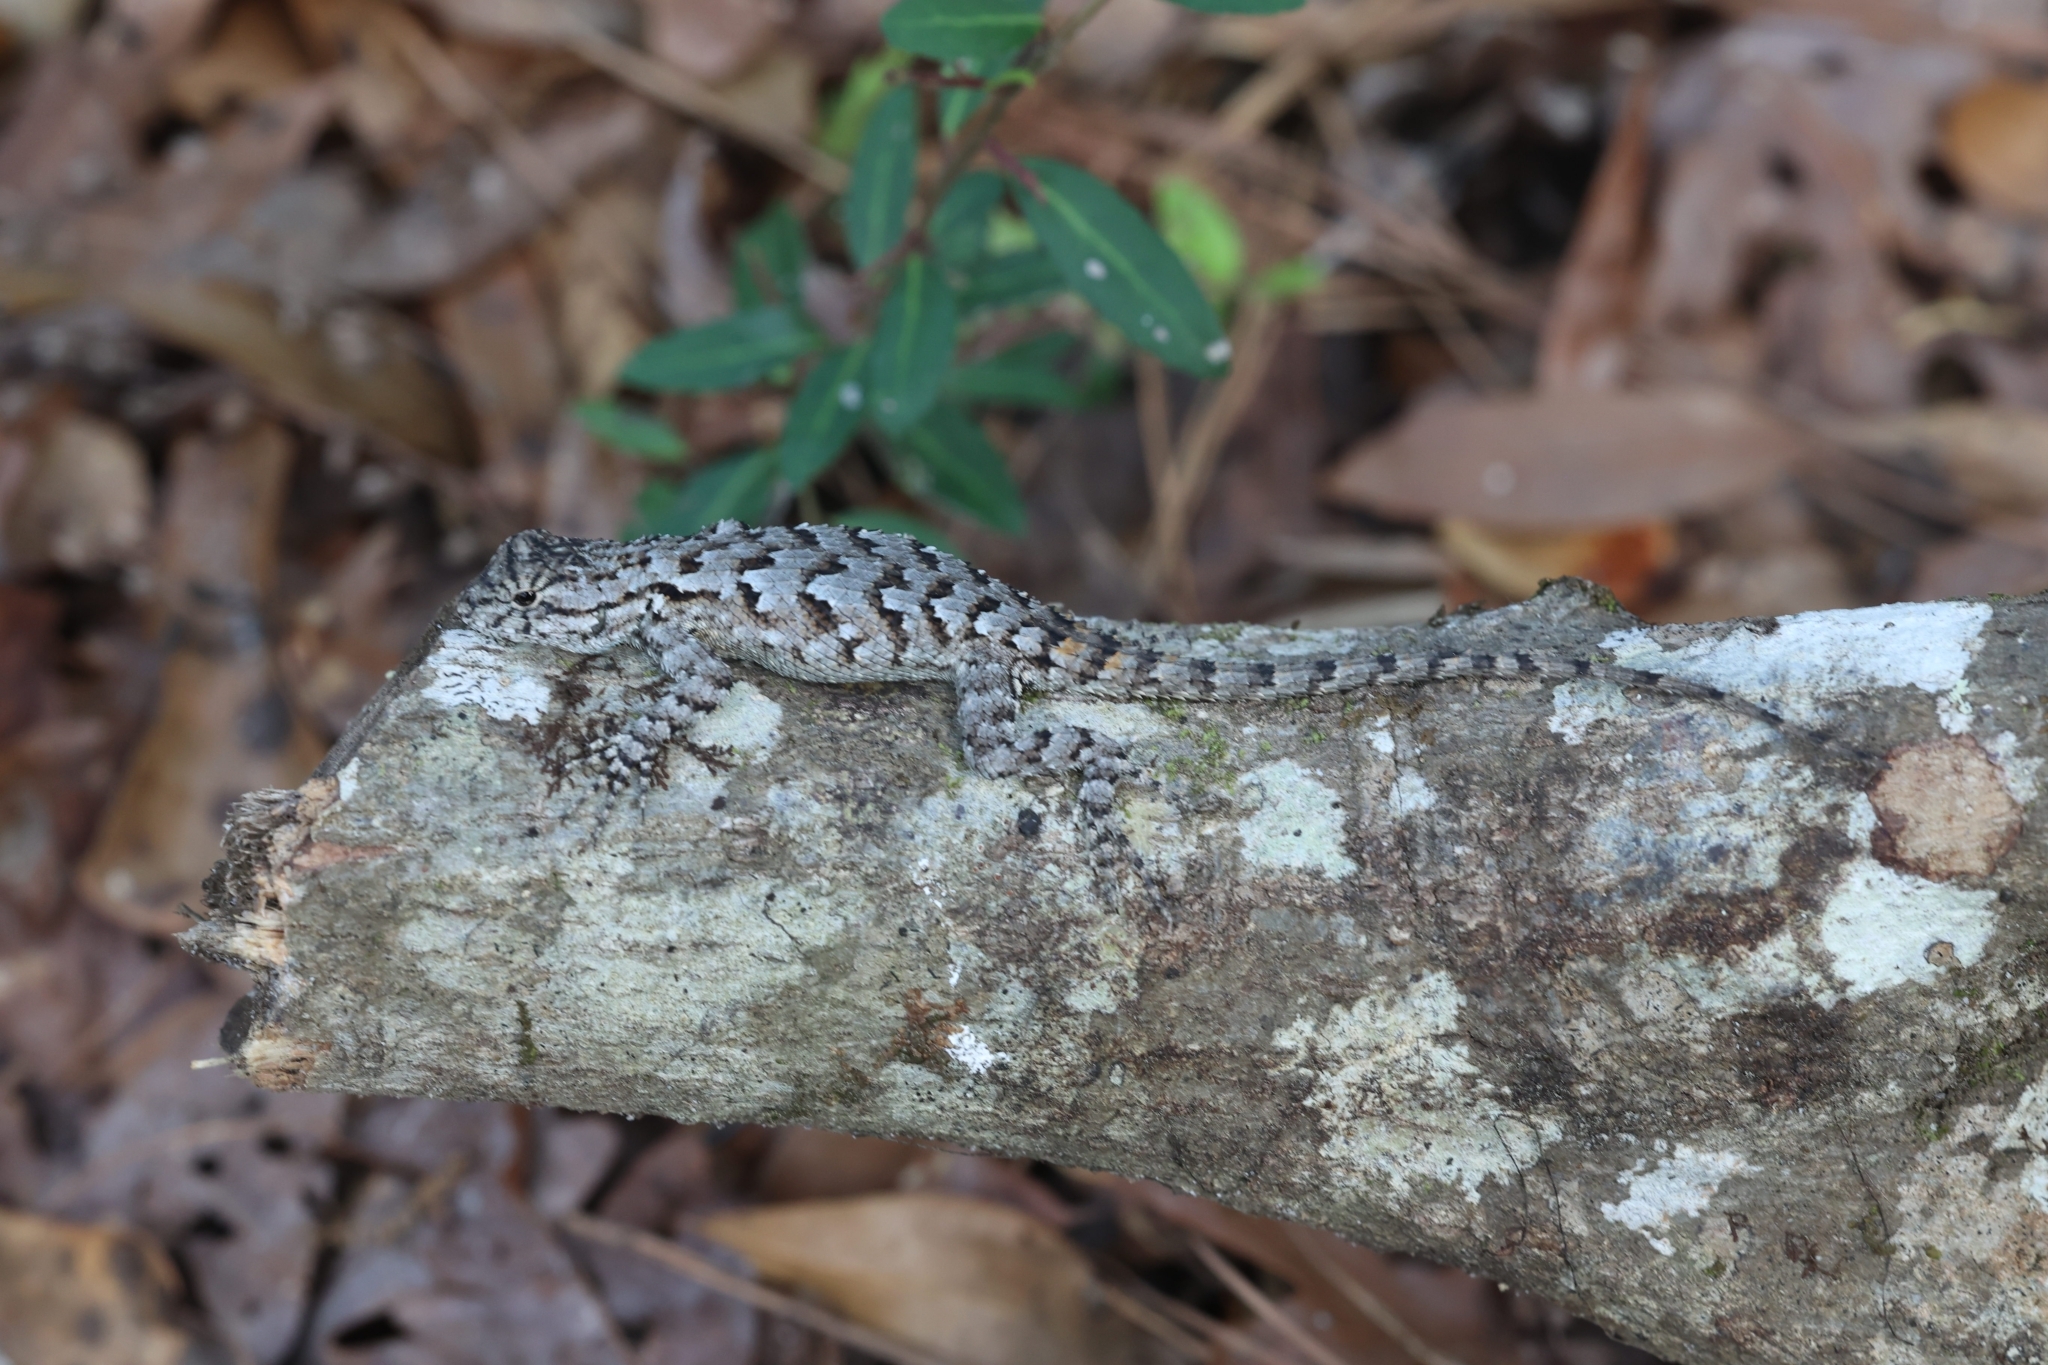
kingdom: Animalia
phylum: Chordata
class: Squamata
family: Phrynosomatidae
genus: Sceloporus
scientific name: Sceloporus undulatus
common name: Eastern fence lizard
